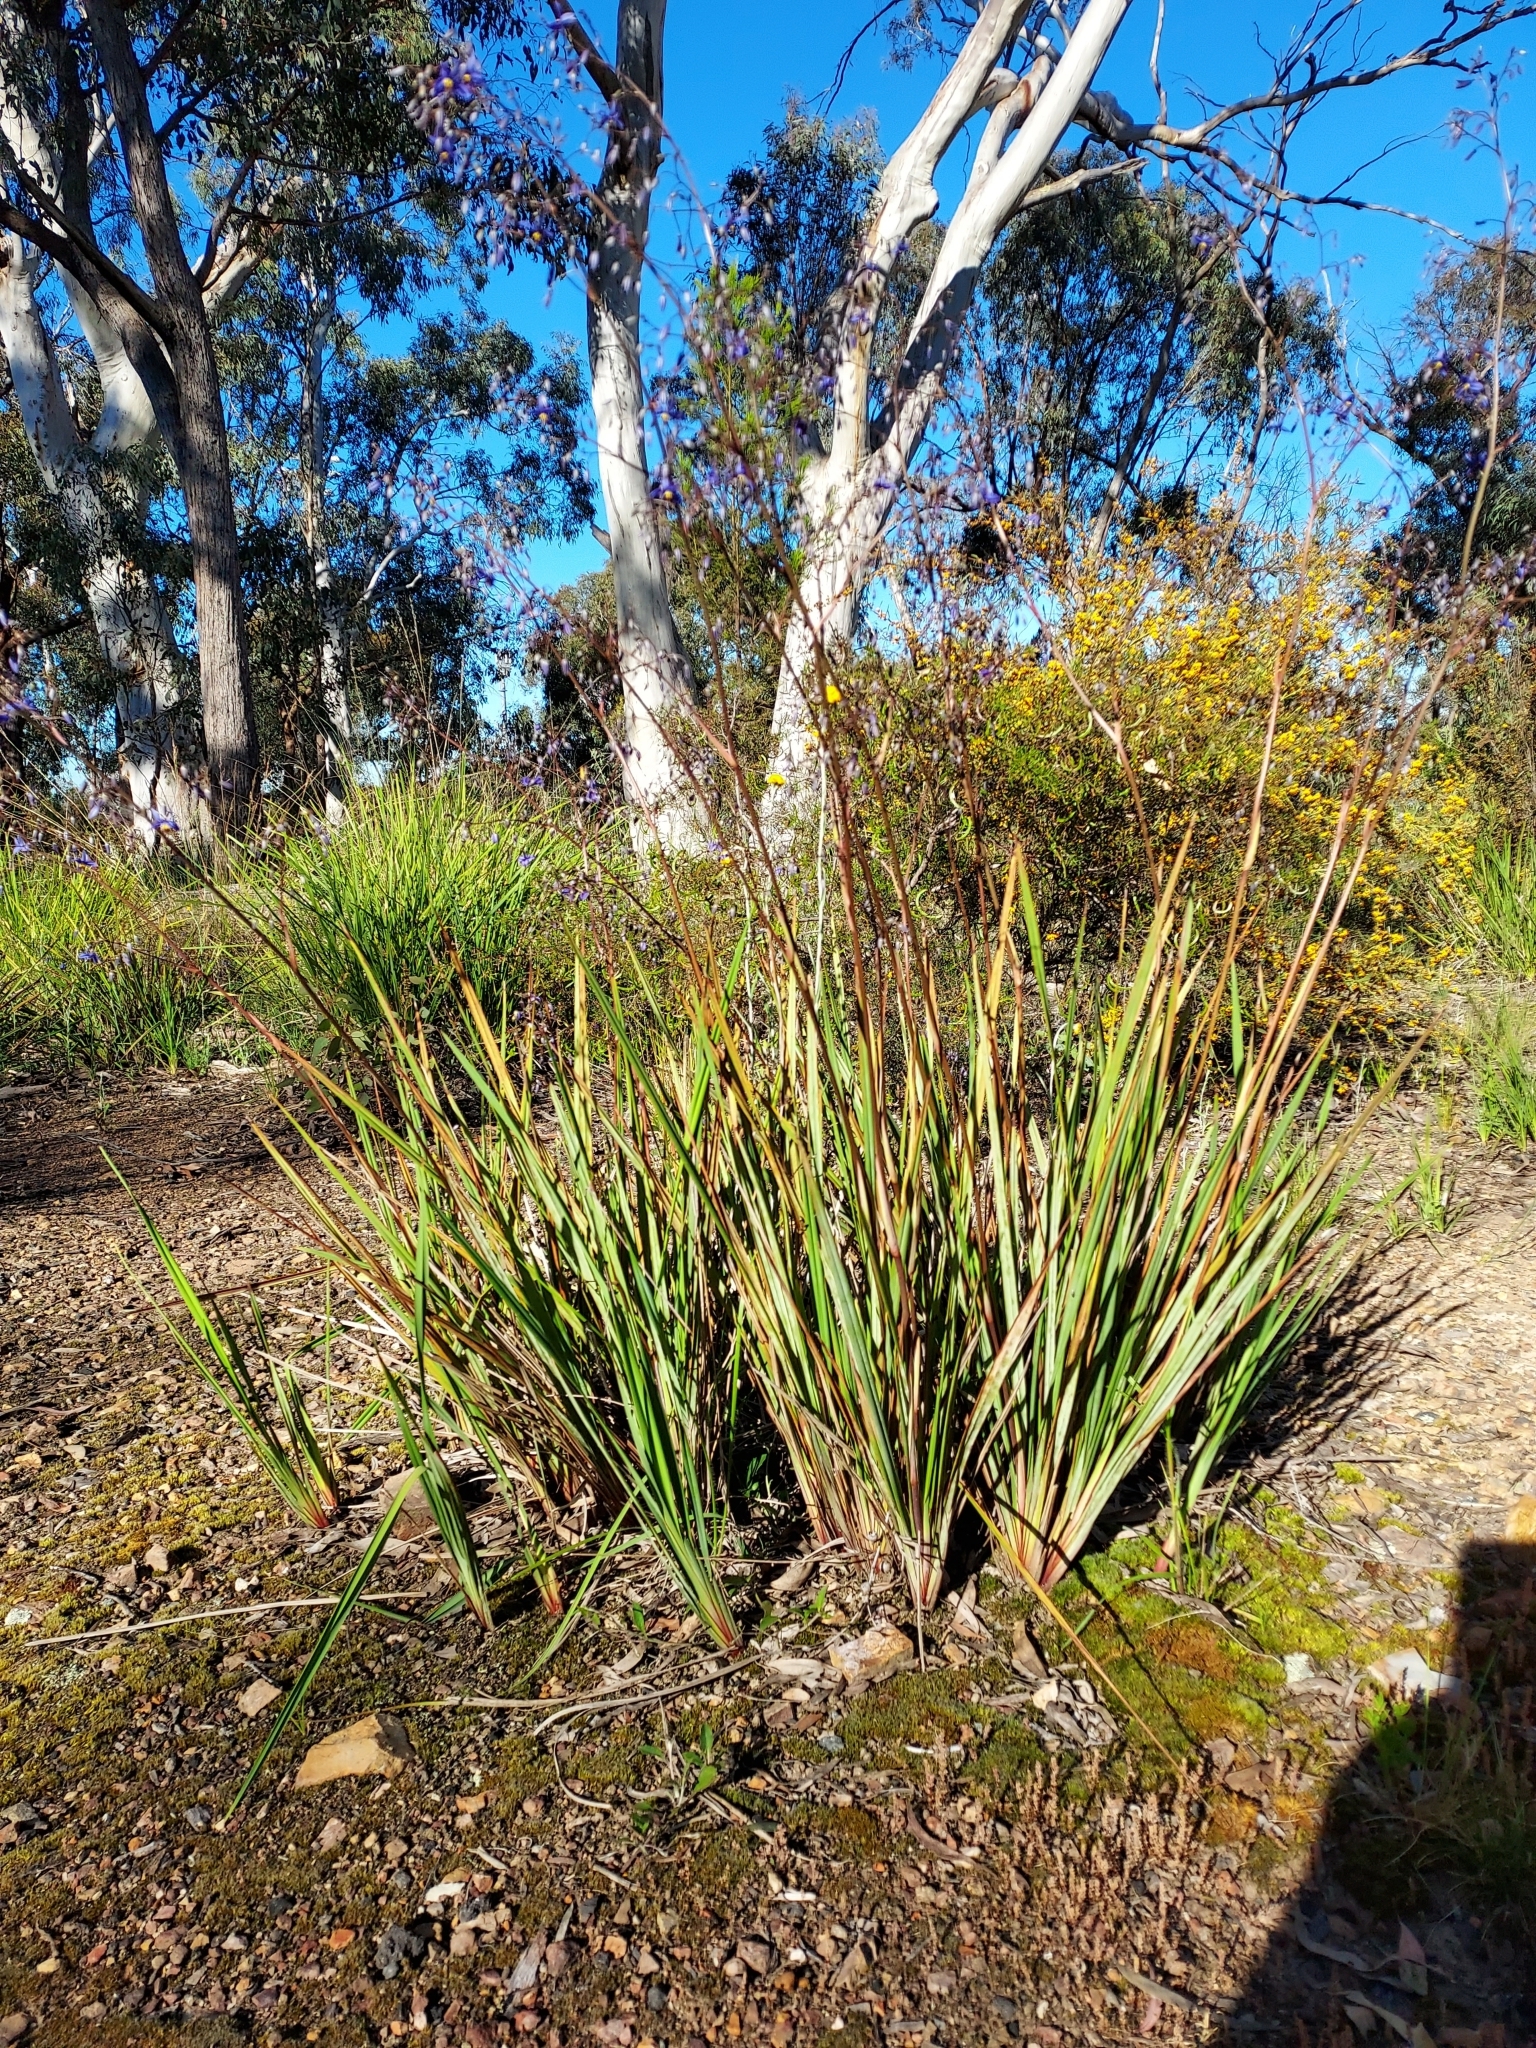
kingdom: Plantae
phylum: Tracheophyta
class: Liliopsida
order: Asparagales
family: Asphodelaceae
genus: Dianella
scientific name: Dianella revoluta
